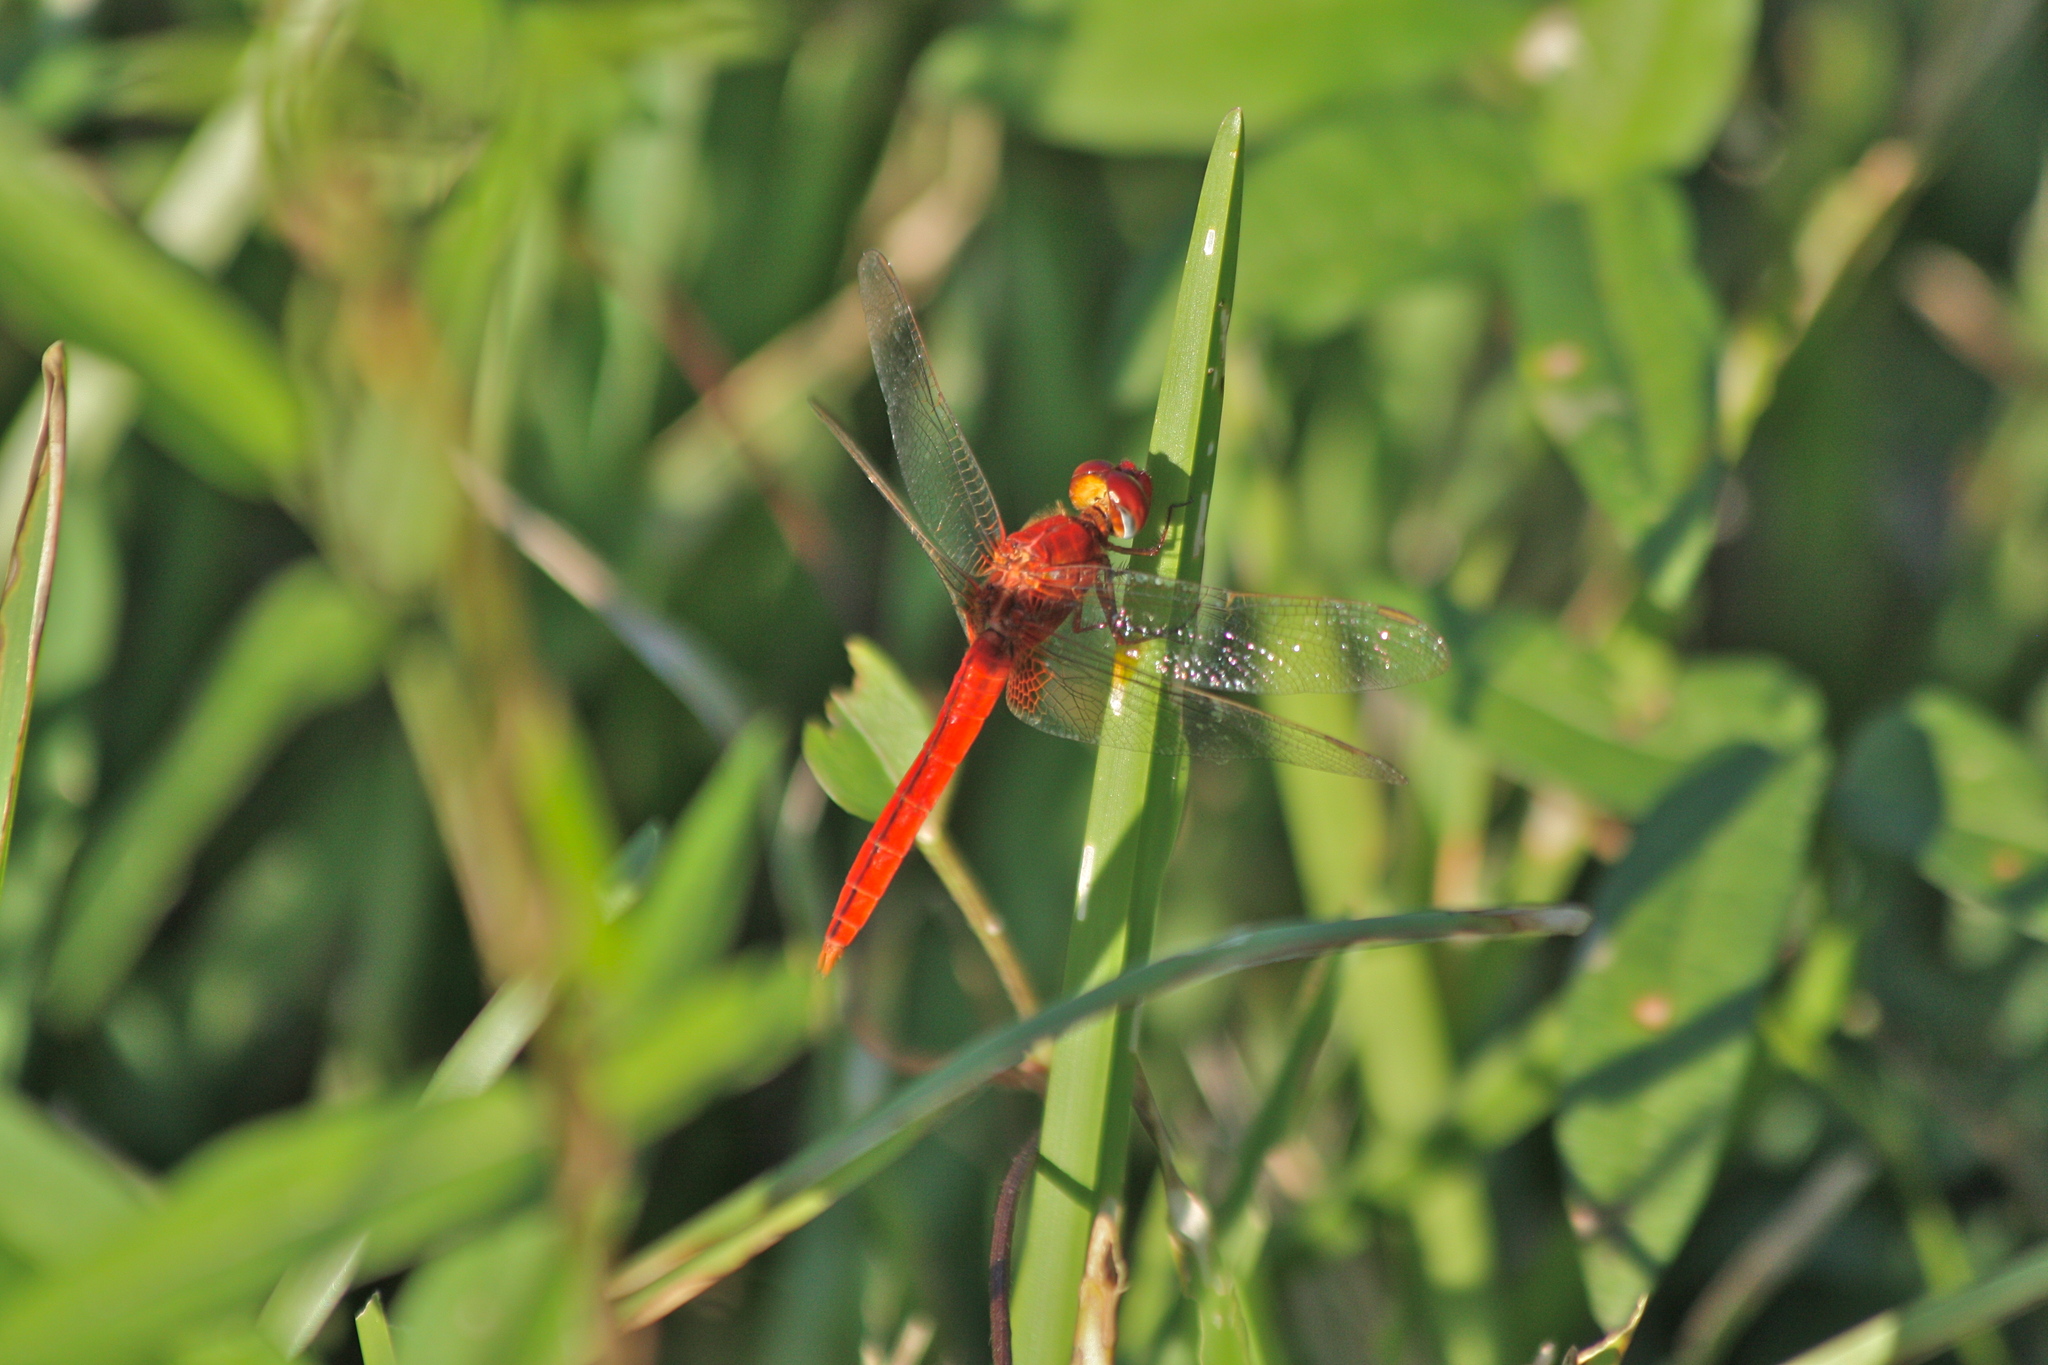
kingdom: Animalia
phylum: Arthropoda
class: Insecta
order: Odonata
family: Libellulidae
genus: Crocothemis
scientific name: Crocothemis servilia
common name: Scarlet skimmer
